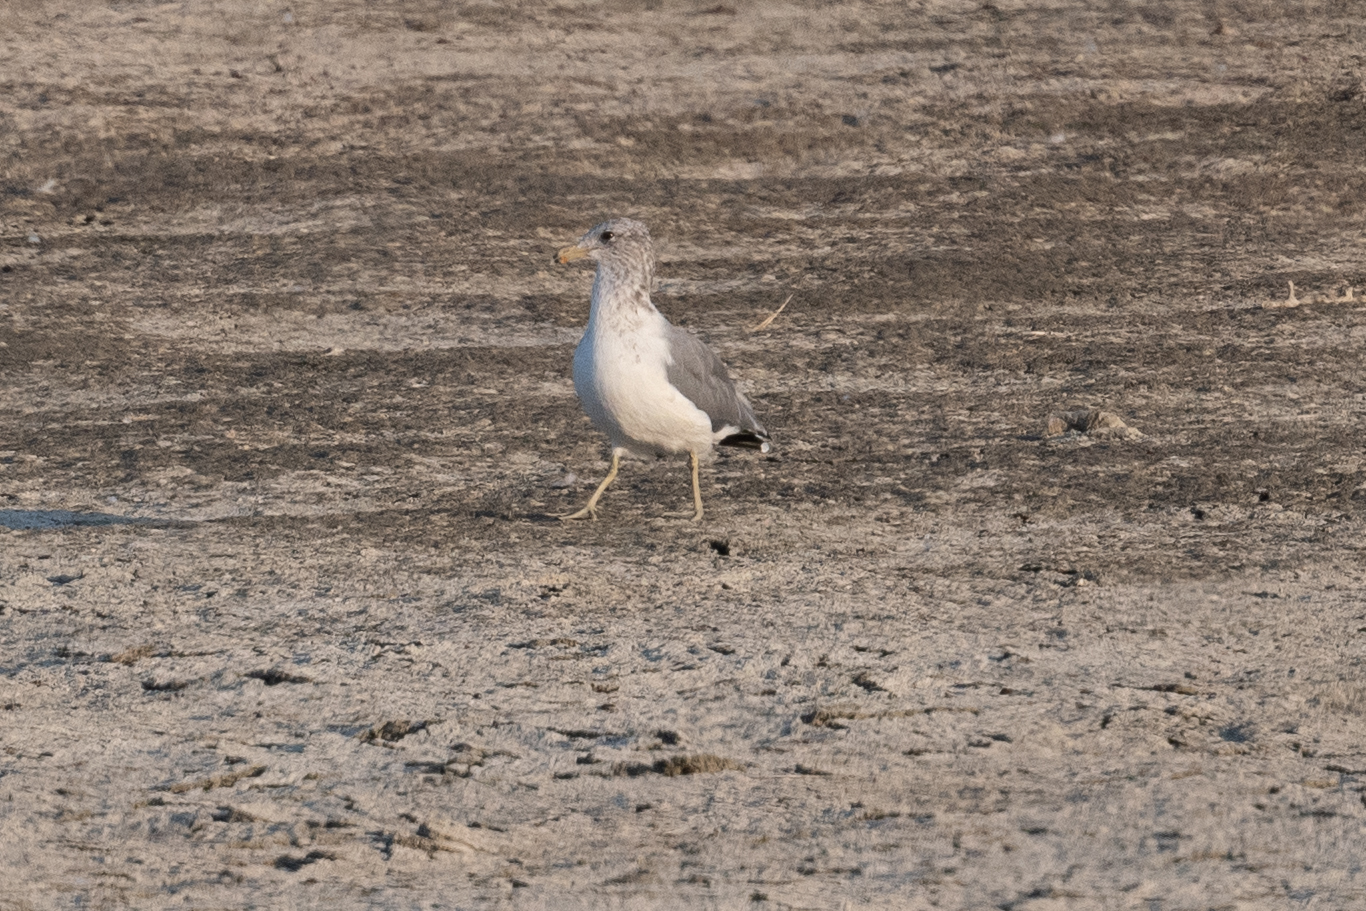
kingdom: Animalia
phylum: Chordata
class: Aves
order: Charadriiformes
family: Laridae
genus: Larus
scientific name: Larus californicus
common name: California gull
